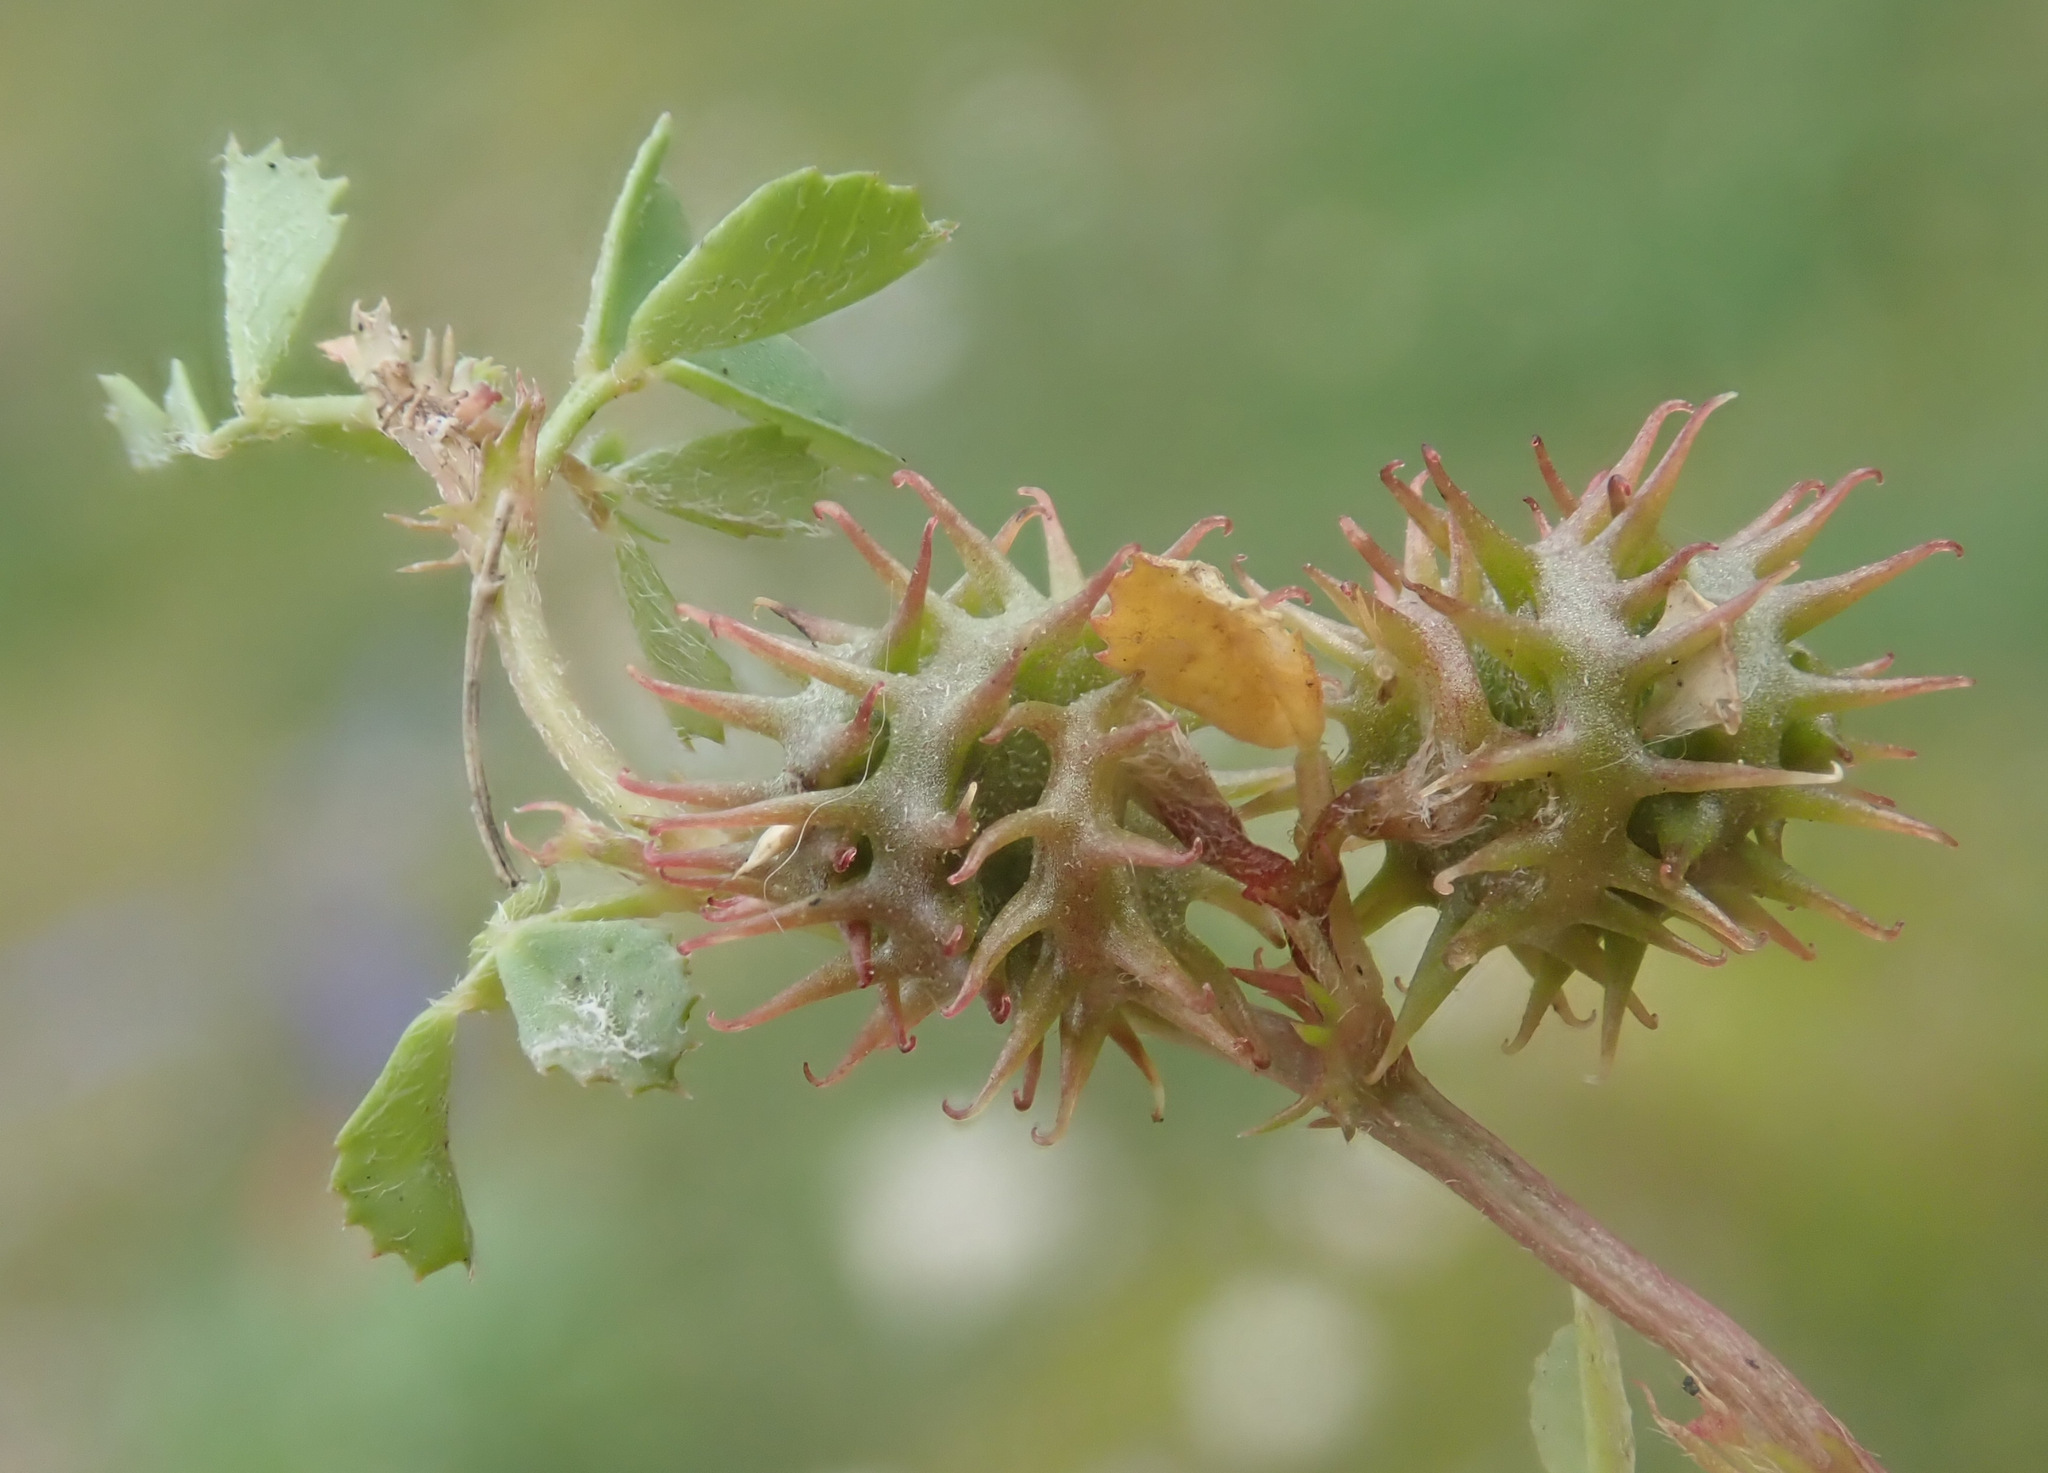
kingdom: Plantae
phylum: Tracheophyta
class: Magnoliopsida
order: Fabales
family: Fabaceae
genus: Medicago
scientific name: Medicago praecox
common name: Early medick
